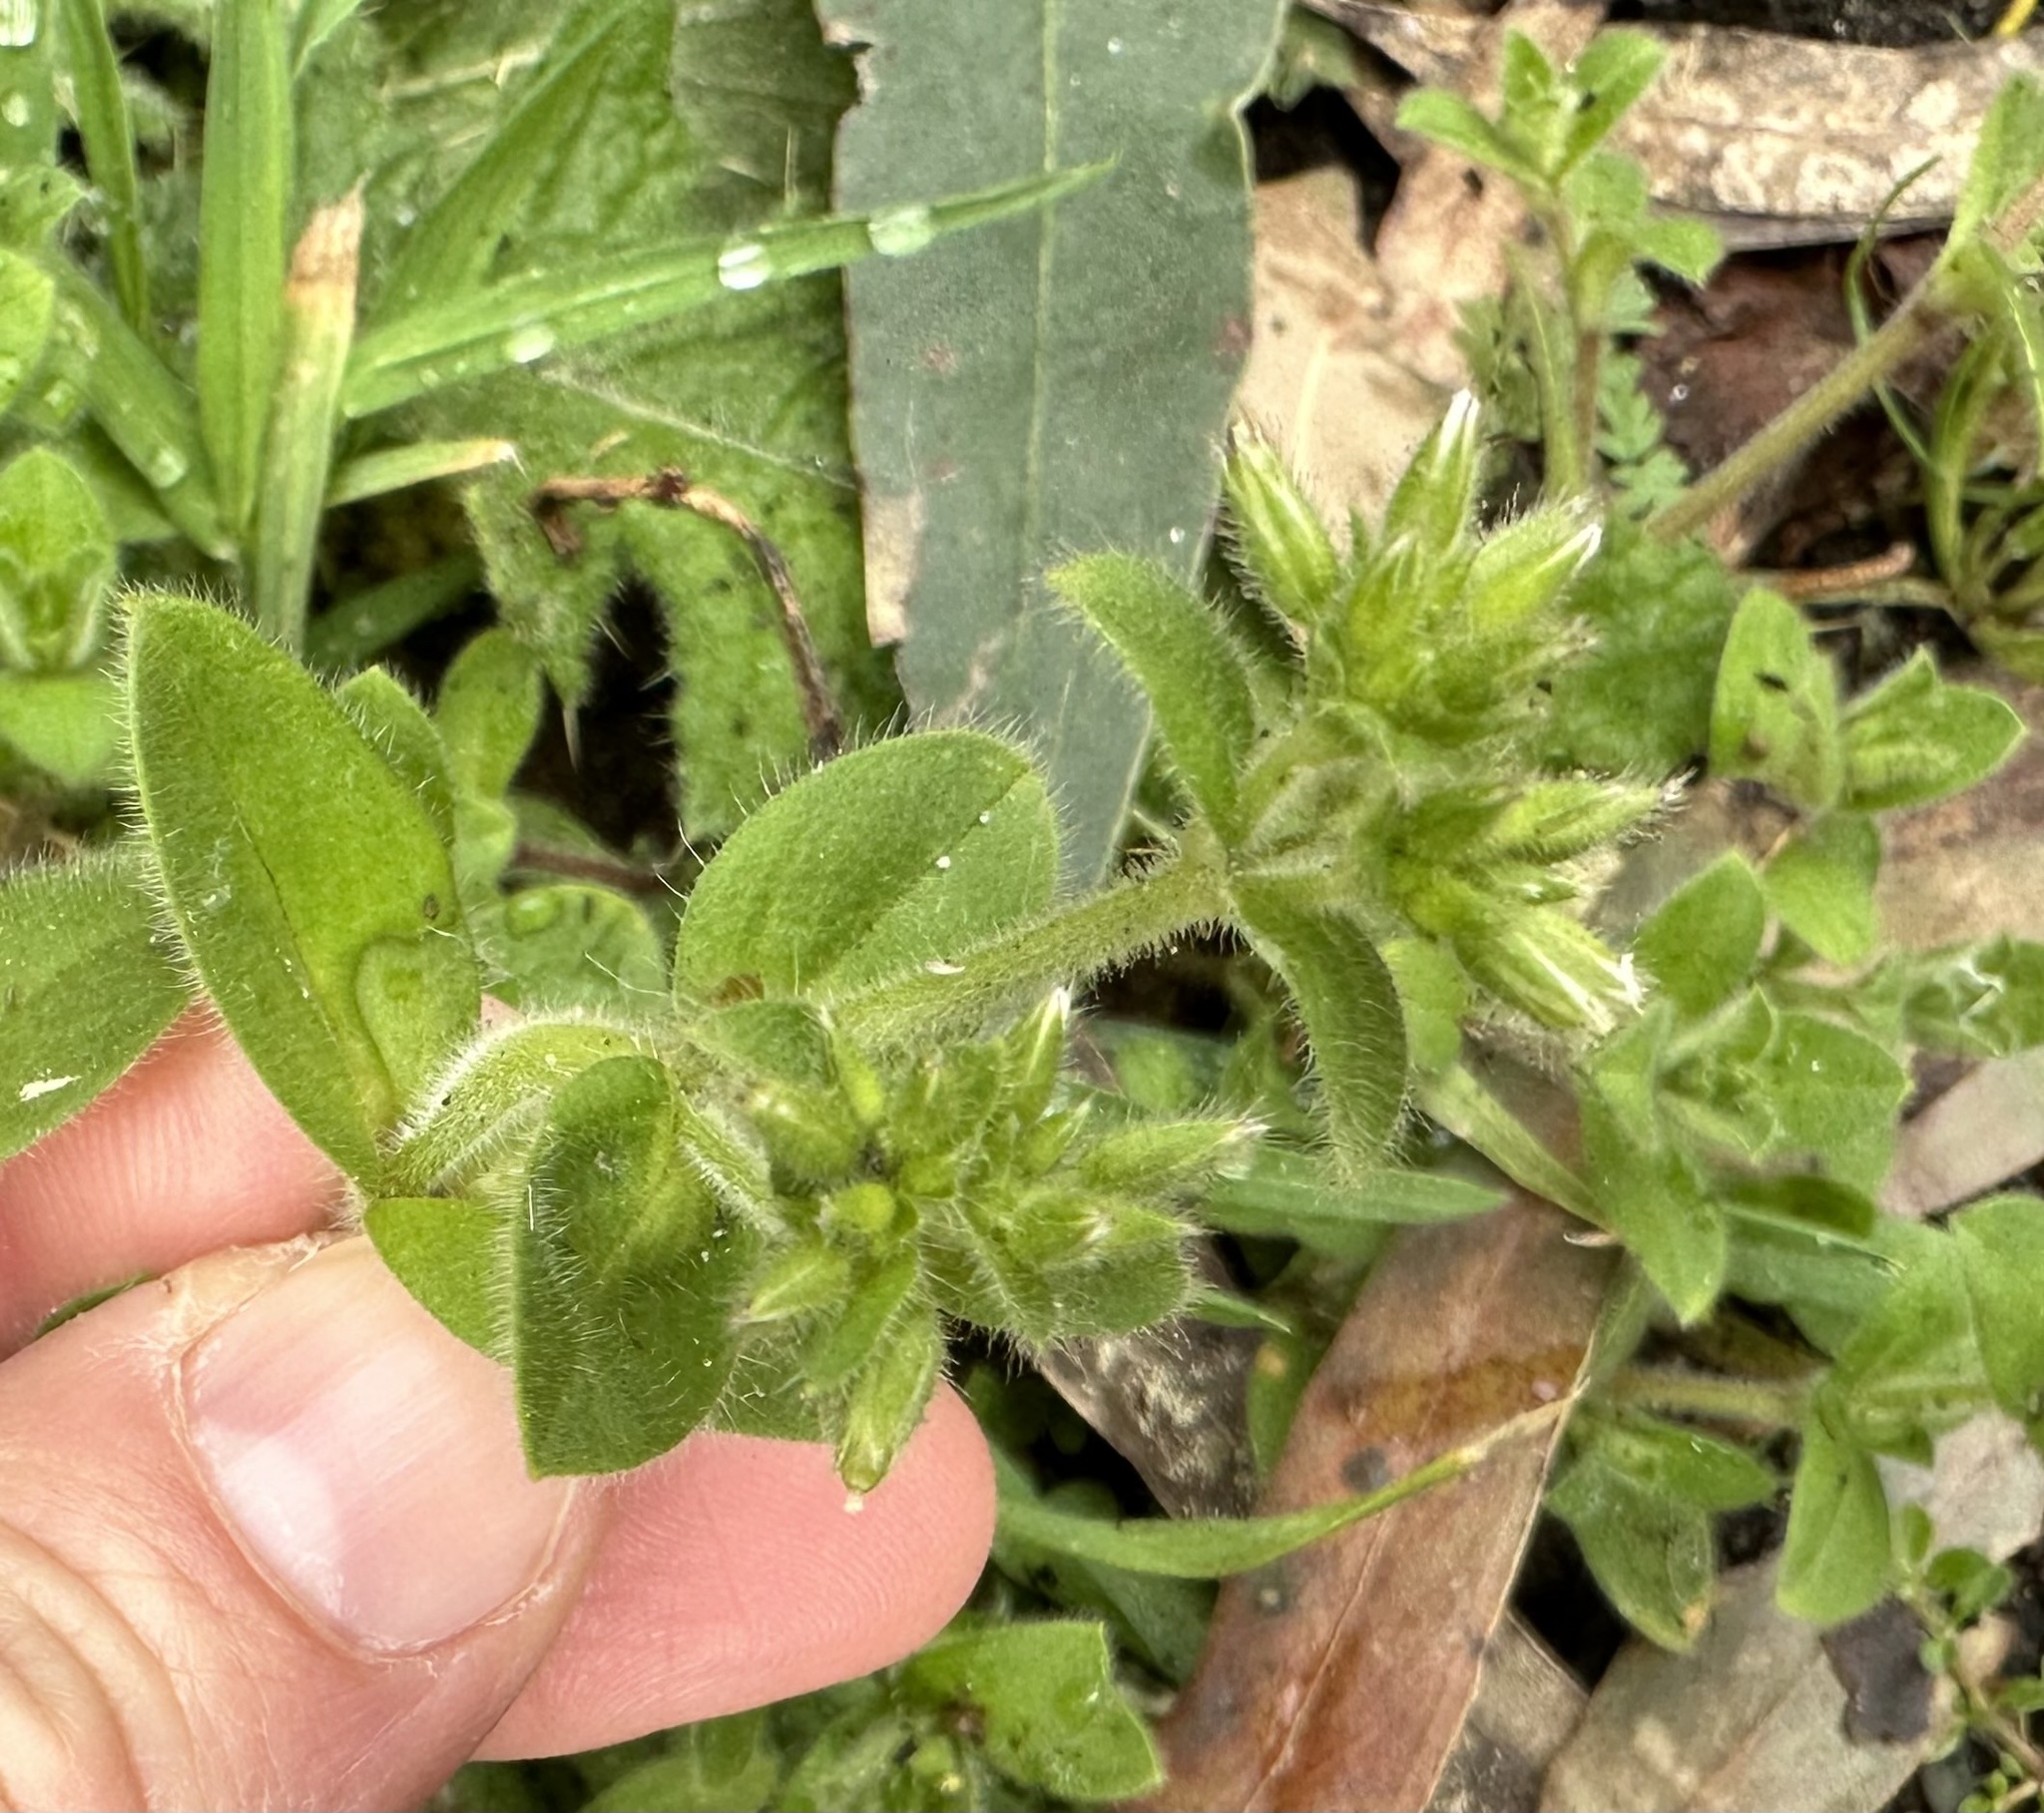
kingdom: Plantae
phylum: Tracheophyta
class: Magnoliopsida
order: Caryophyllales
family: Caryophyllaceae
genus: Cerastium
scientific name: Cerastium glomeratum
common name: Sticky chickweed
